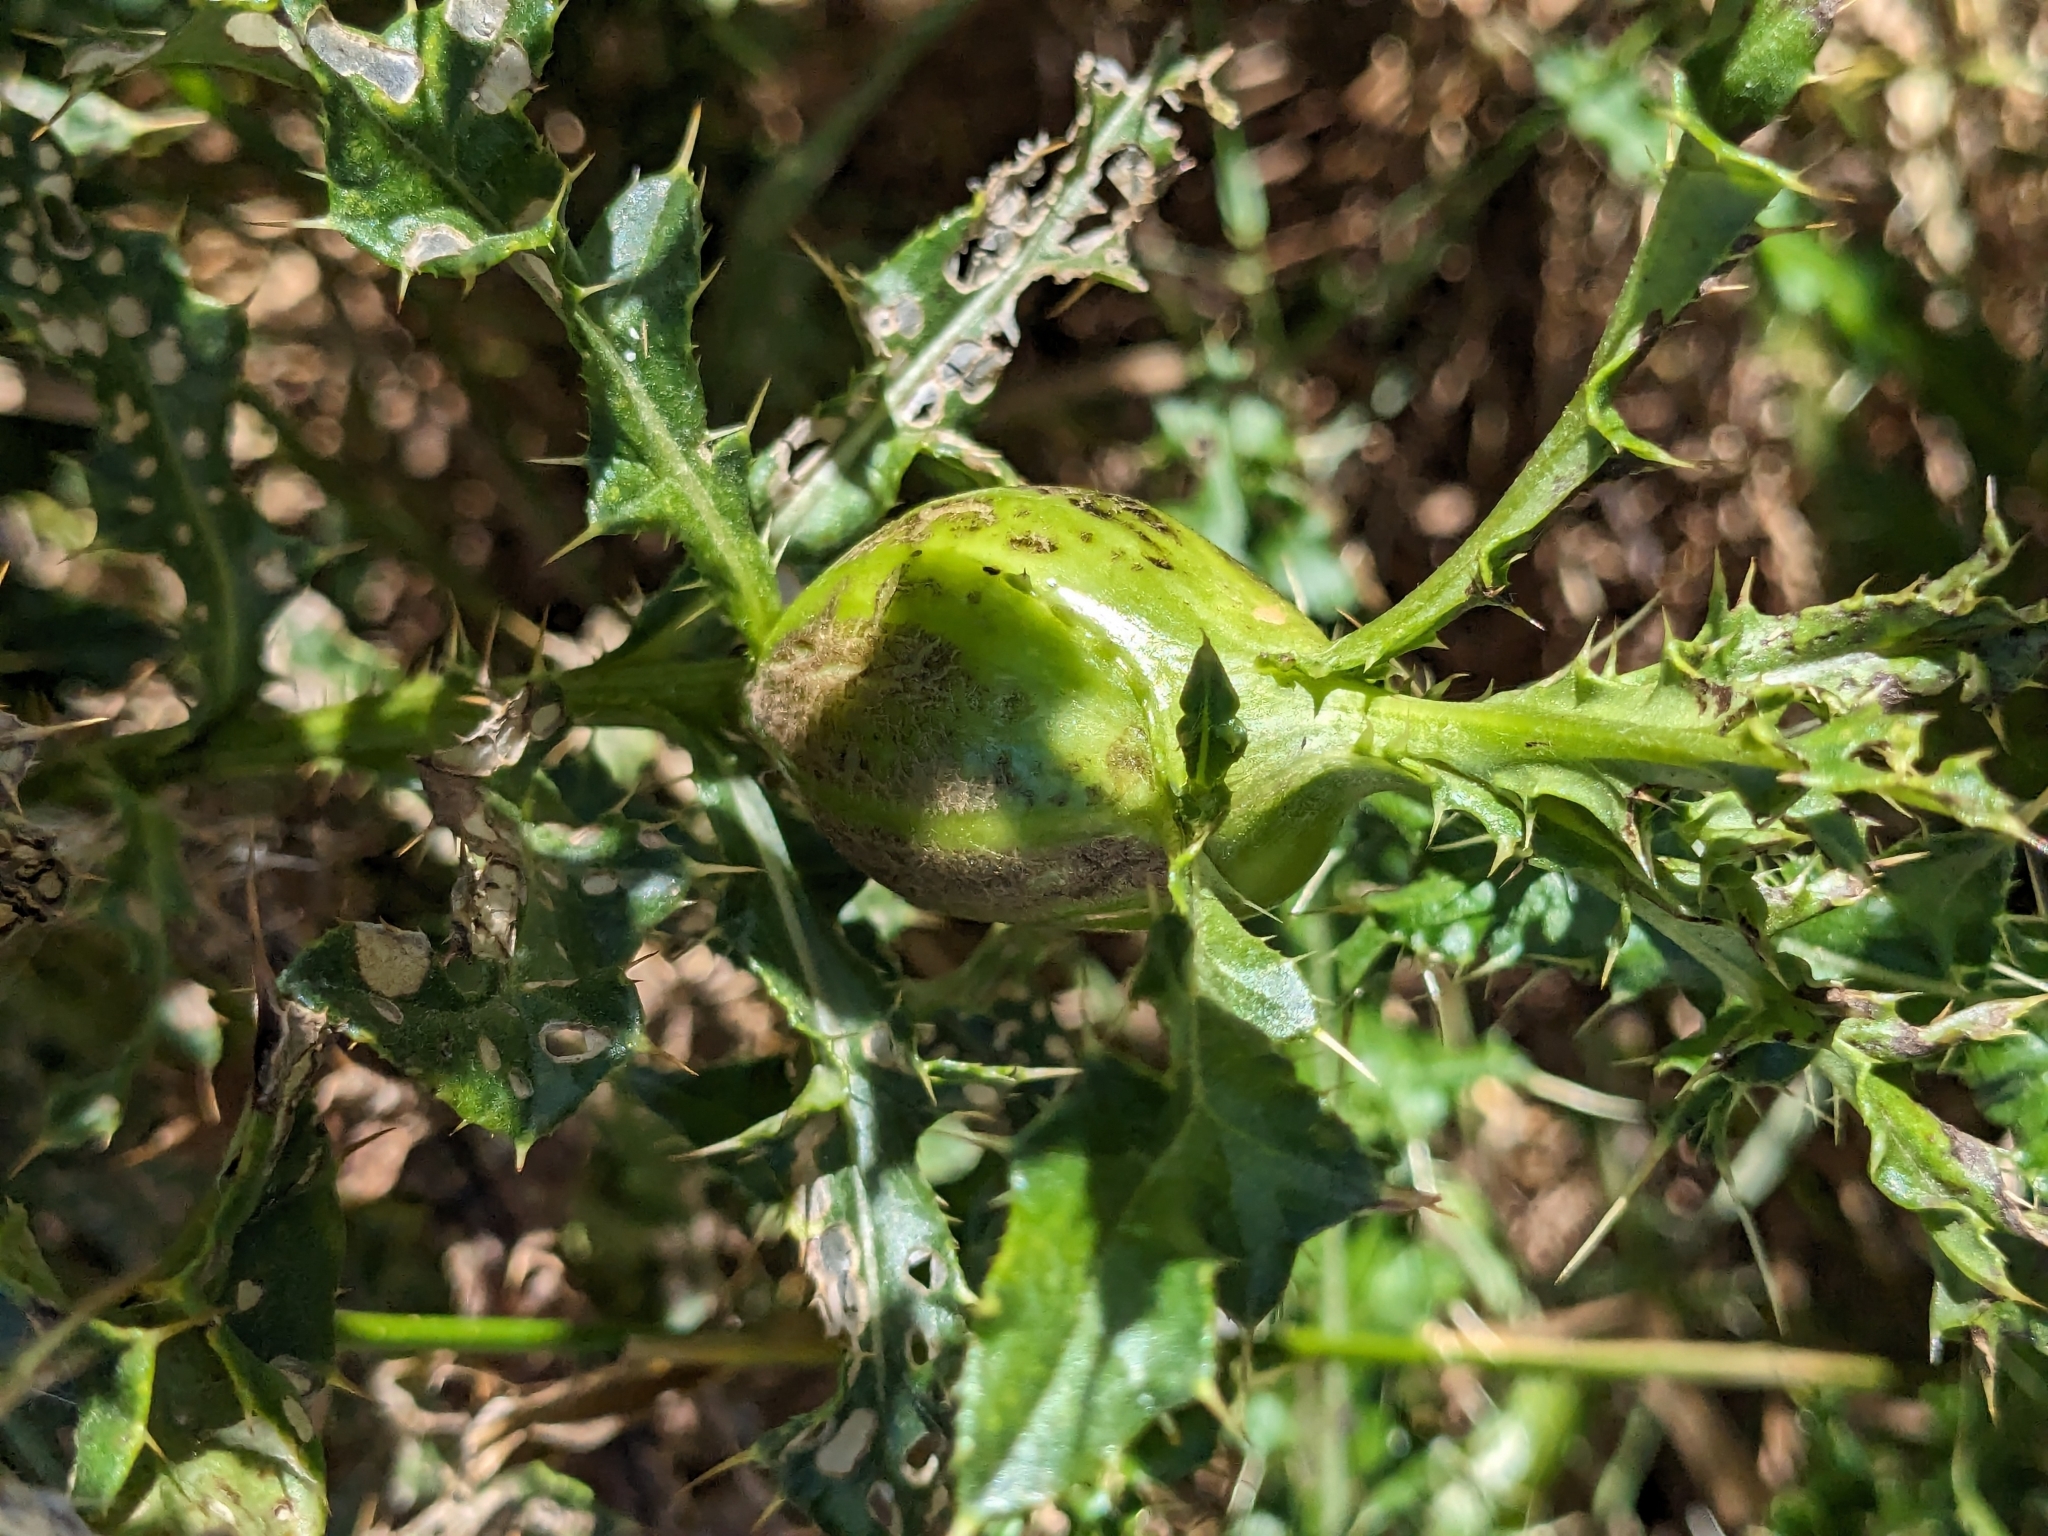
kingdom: Animalia
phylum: Arthropoda
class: Insecta
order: Diptera
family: Tephritidae
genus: Urophora
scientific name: Urophora cardui
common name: Fruit fly
